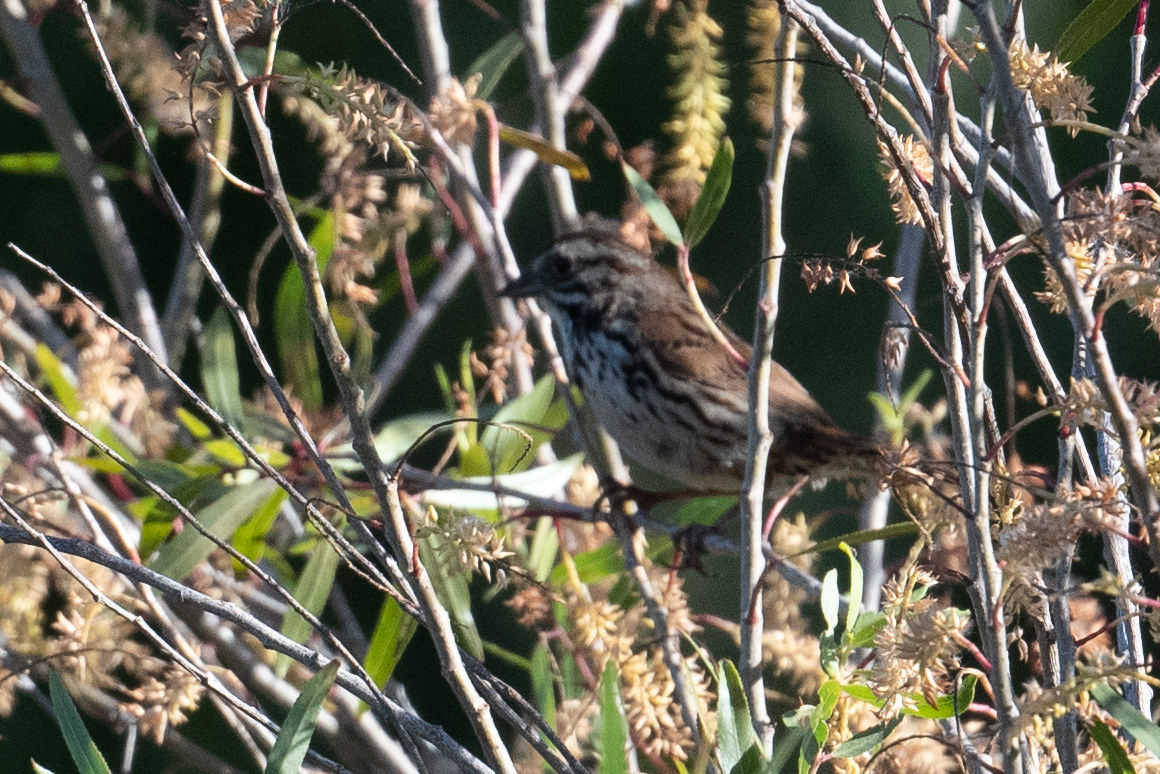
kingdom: Animalia
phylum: Chordata
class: Aves
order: Passeriformes
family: Passerellidae
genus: Melospiza
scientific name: Melospiza melodia
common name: Song sparrow
